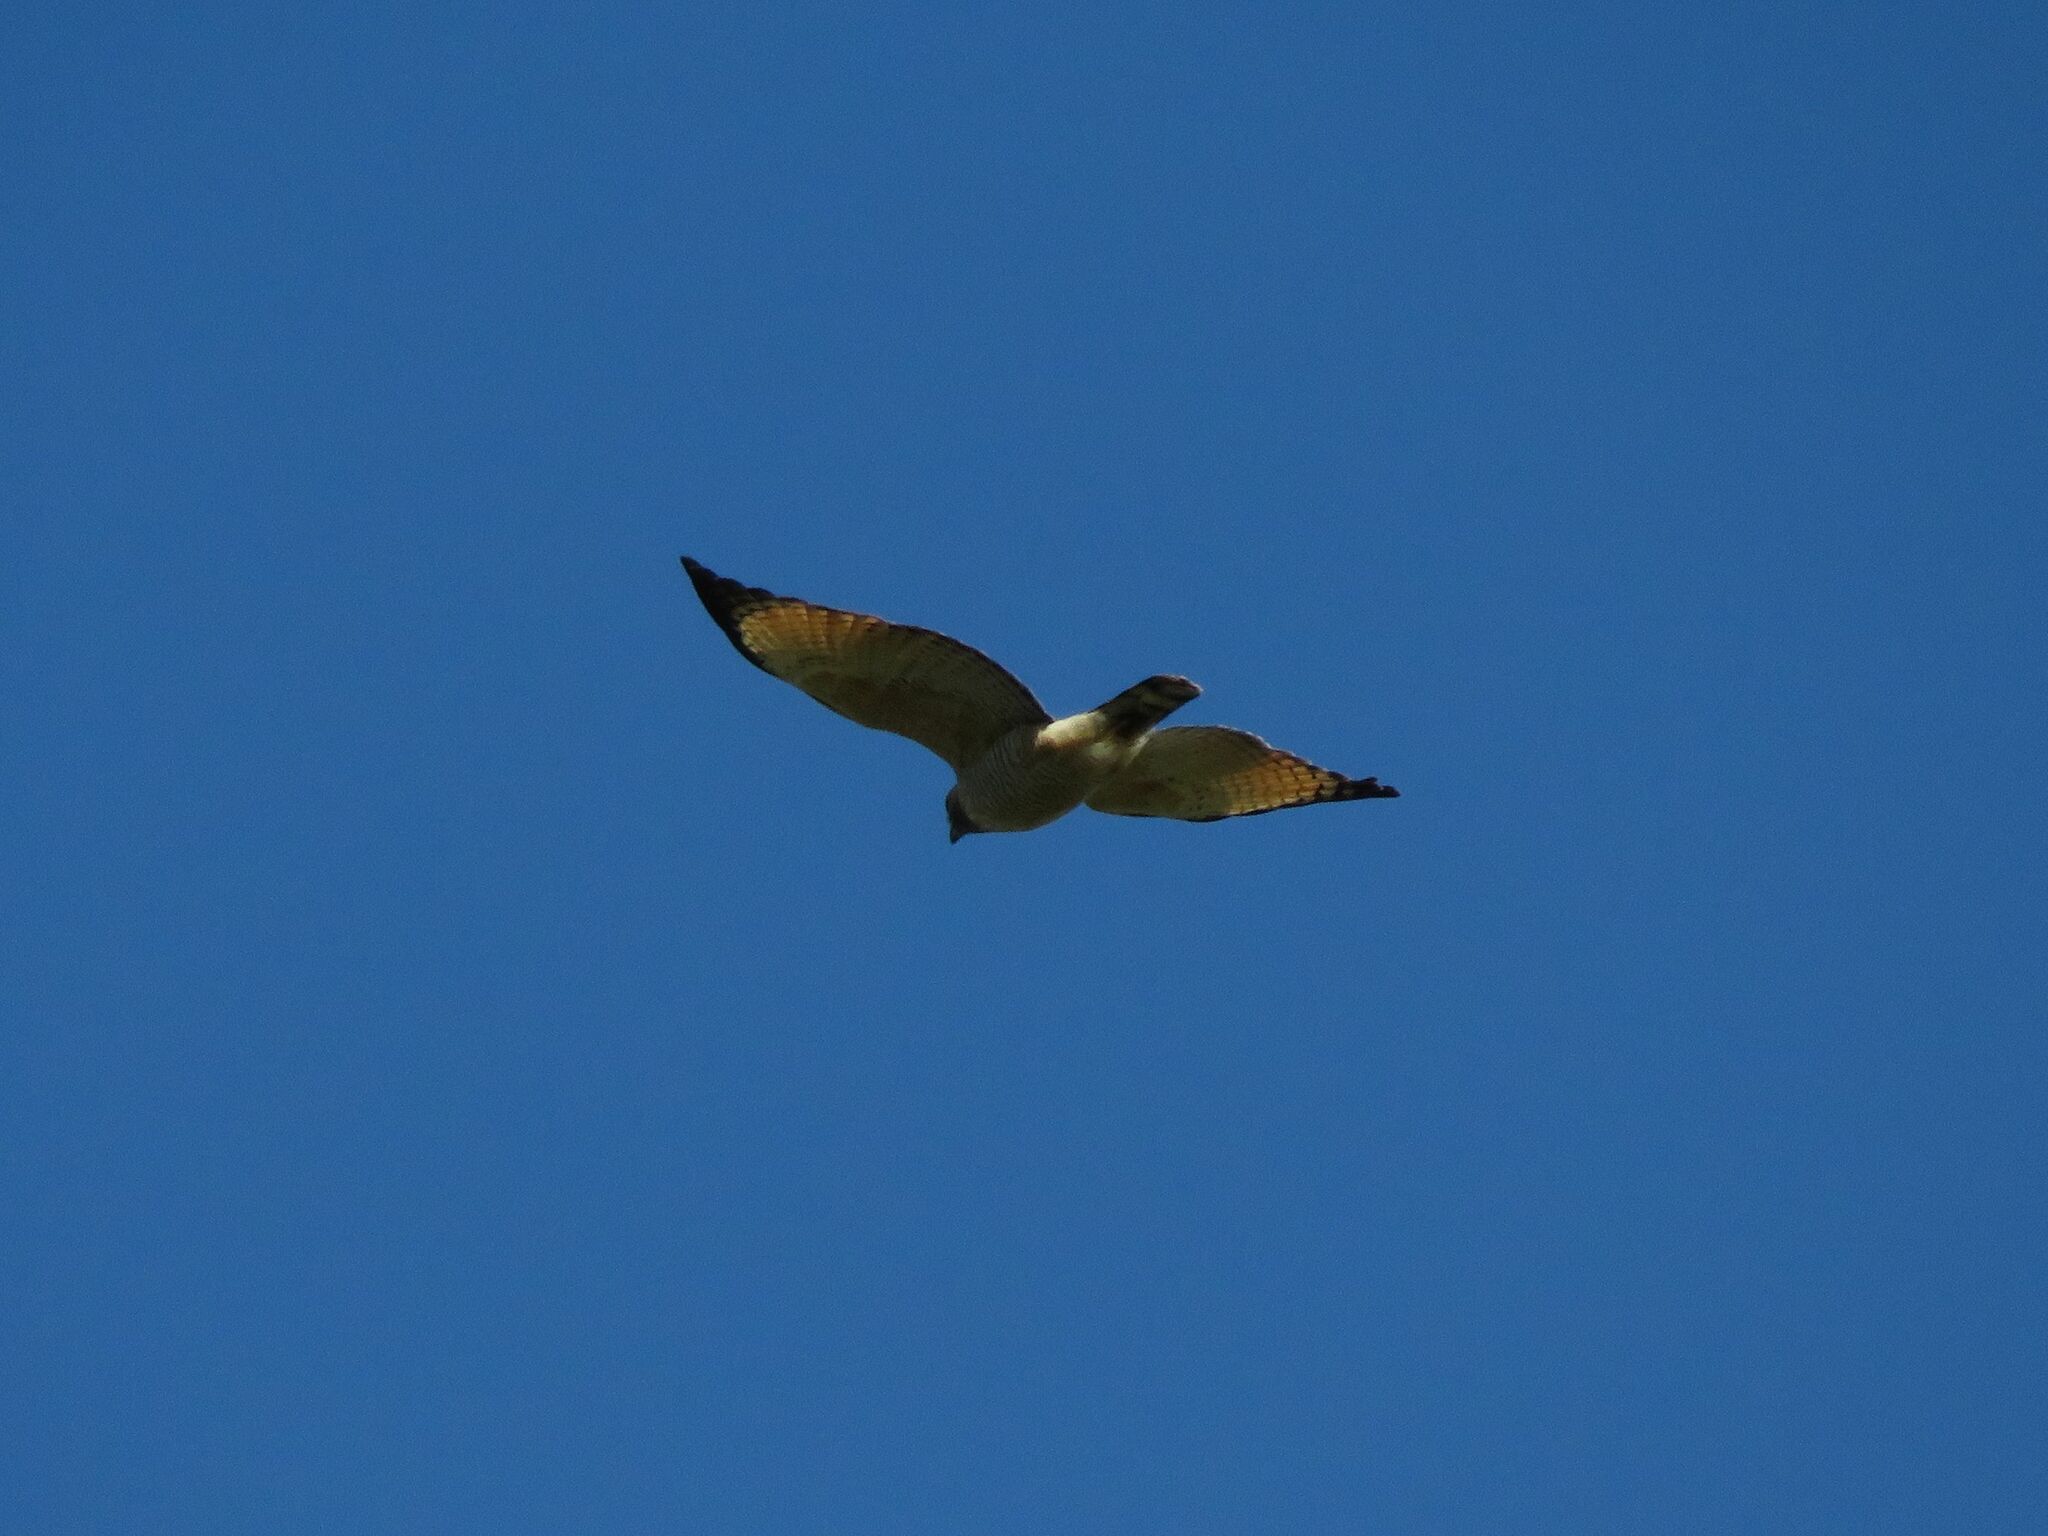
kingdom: Animalia
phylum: Chordata
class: Aves
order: Accipitriformes
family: Accipitridae
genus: Rupornis
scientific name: Rupornis magnirostris
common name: Roadside hawk
